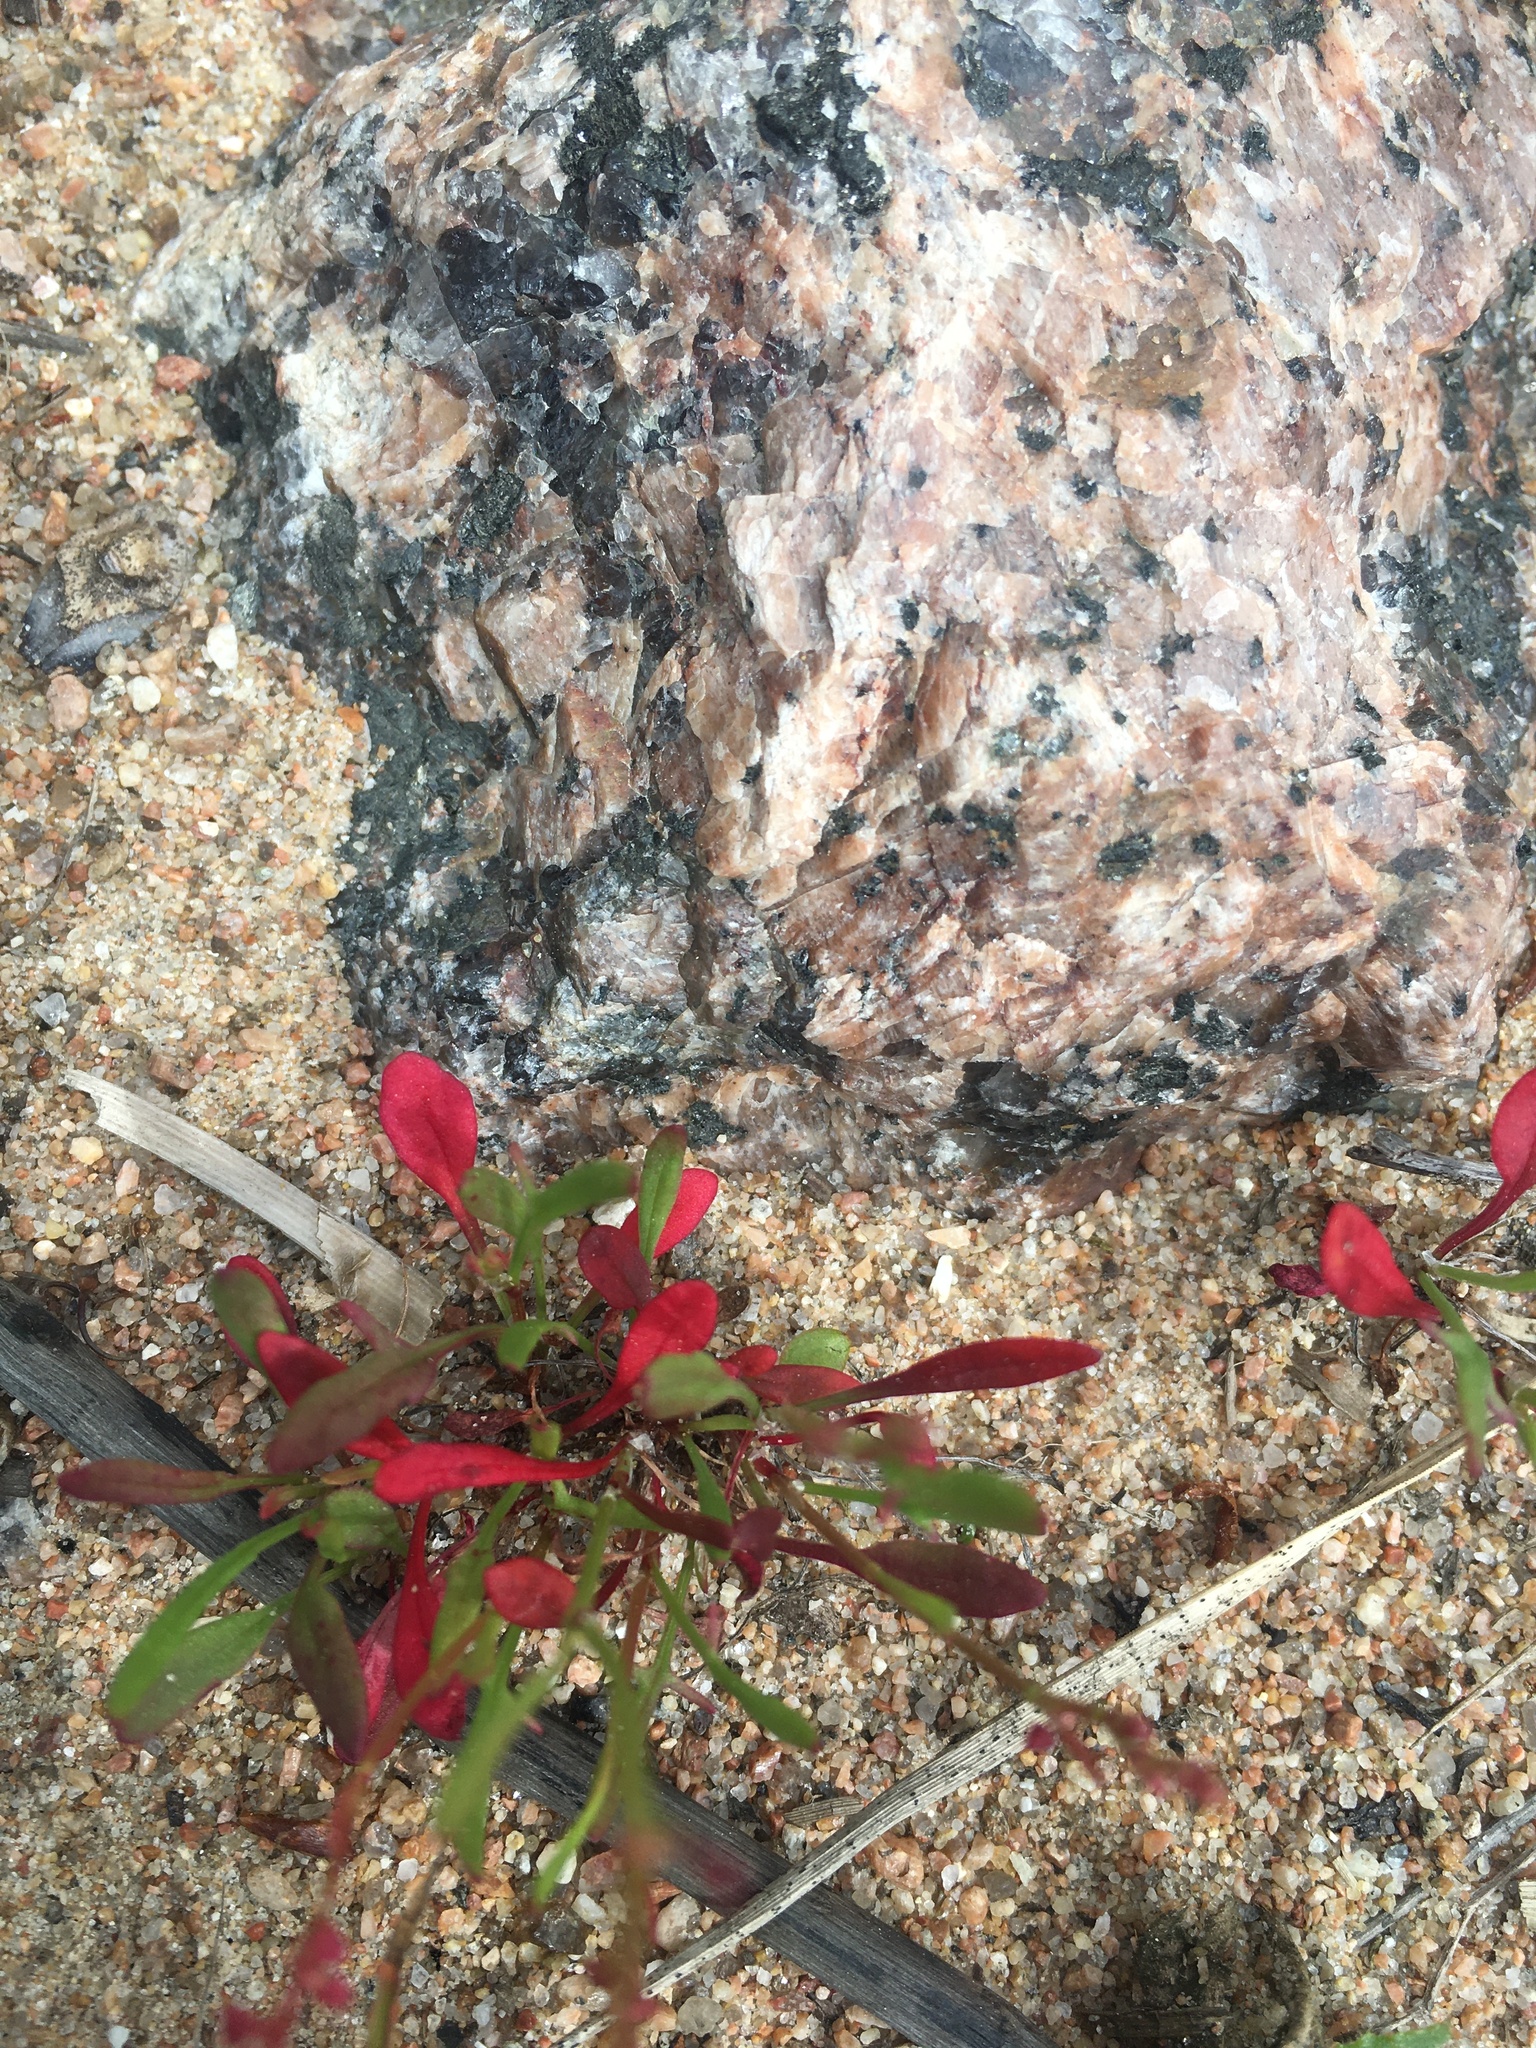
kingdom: Plantae
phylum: Tracheophyta
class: Magnoliopsida
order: Caryophyllales
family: Polygonaceae
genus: Rumex
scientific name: Rumex acetosella
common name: Common sheep sorrel
